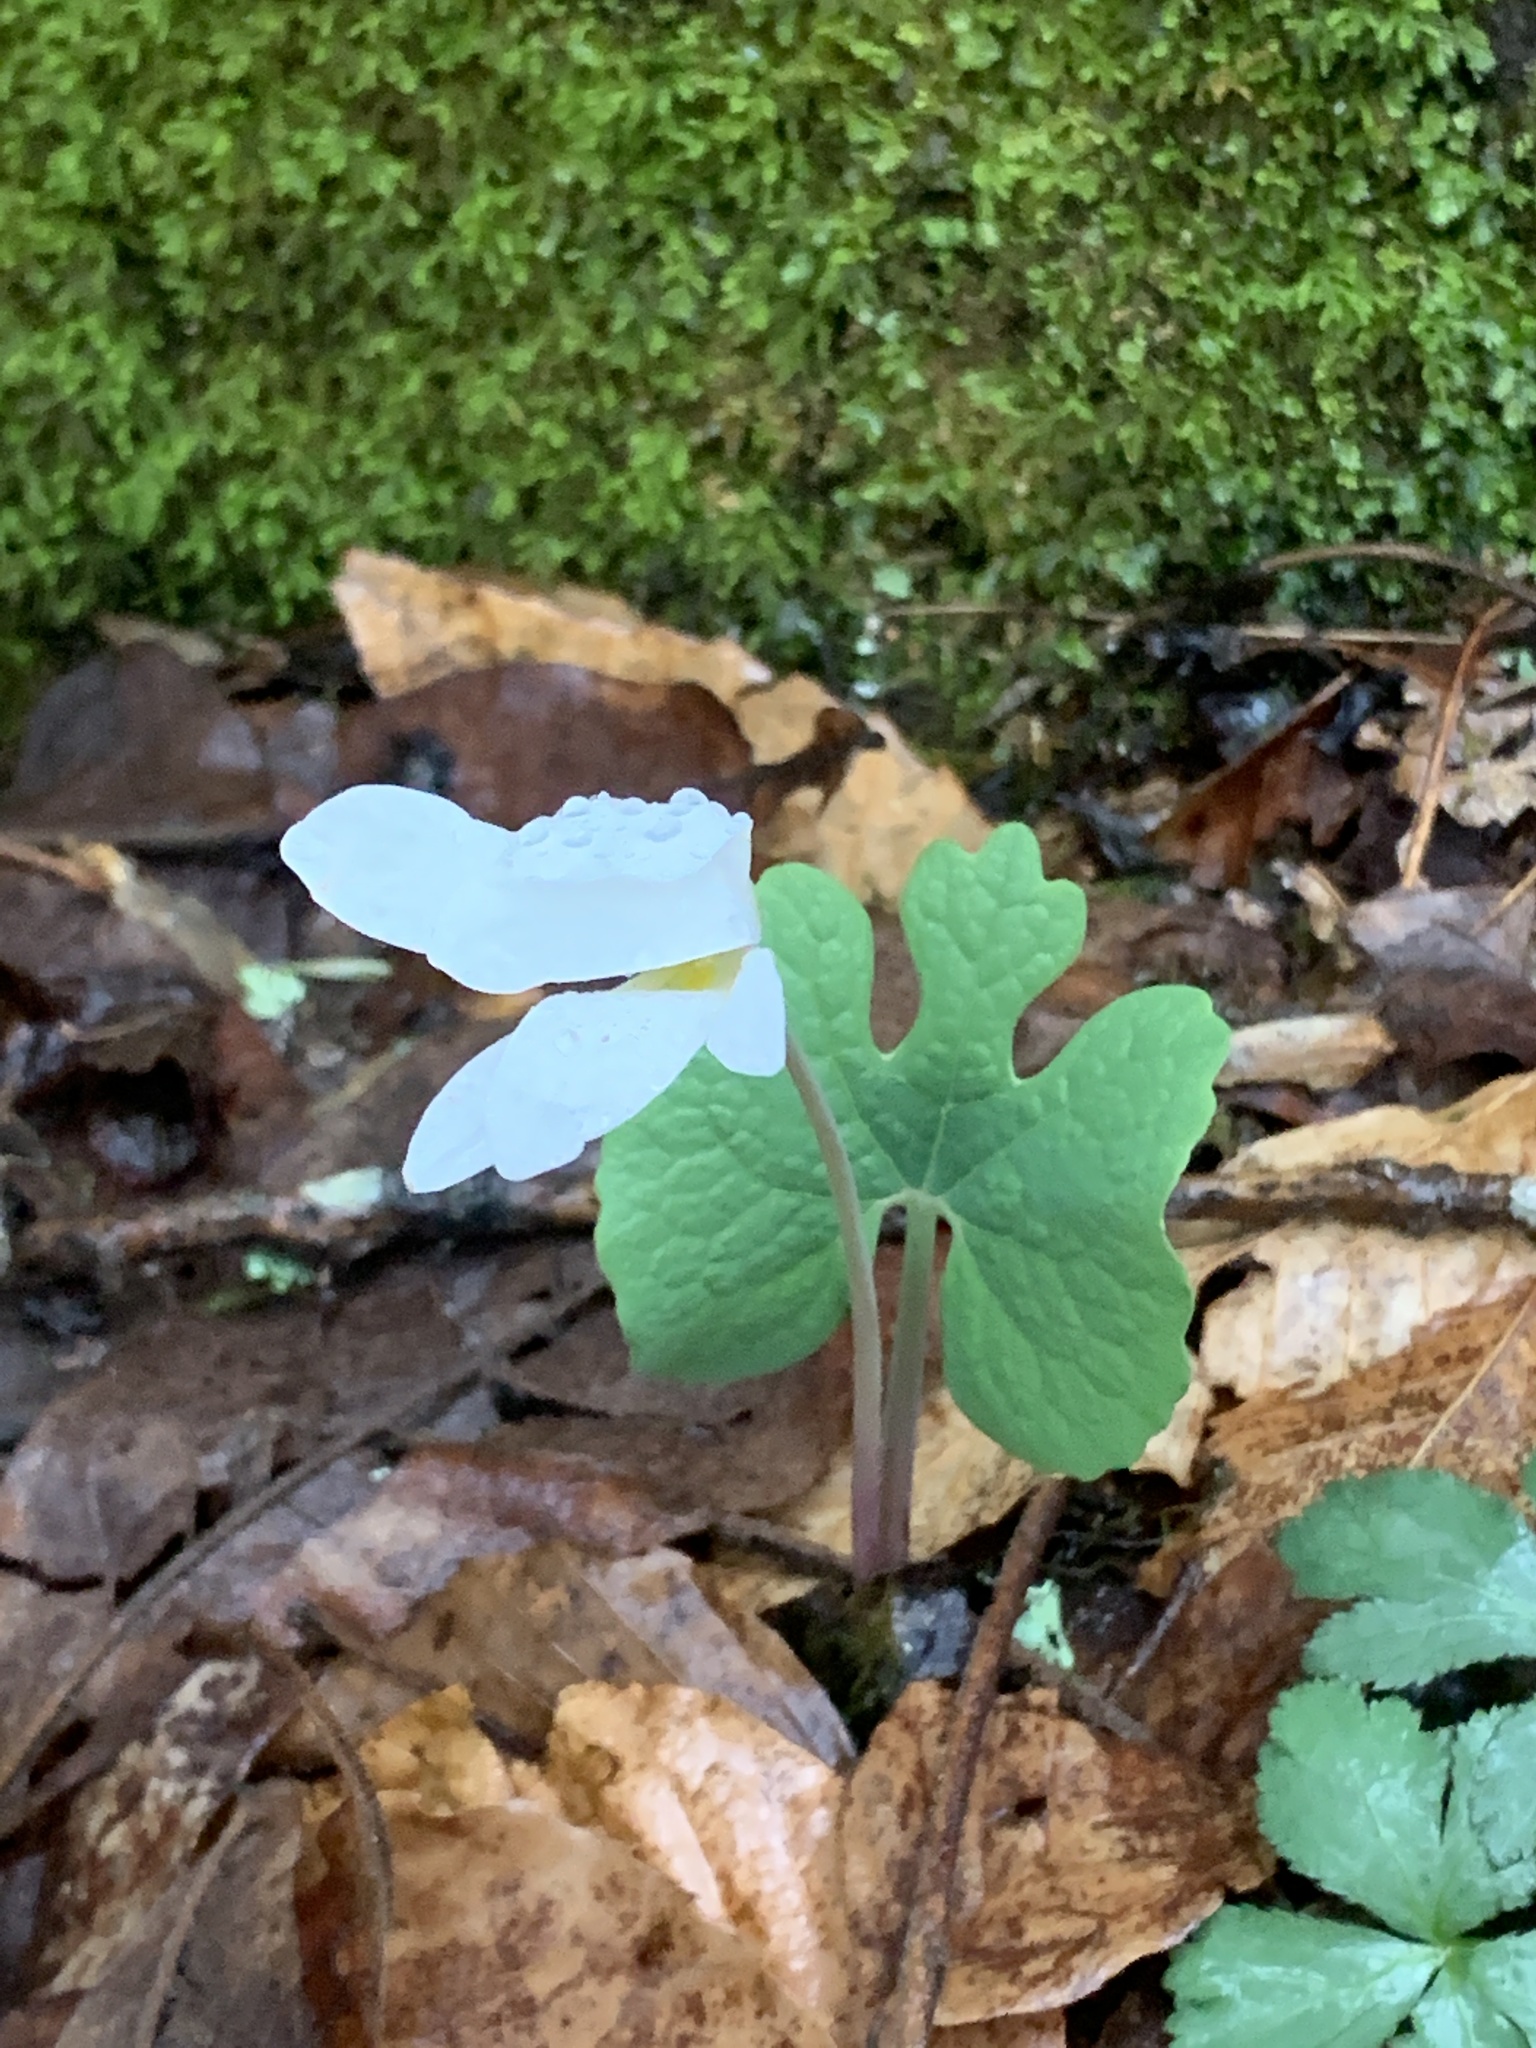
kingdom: Plantae
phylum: Tracheophyta
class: Magnoliopsida
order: Ranunculales
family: Papaveraceae
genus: Sanguinaria
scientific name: Sanguinaria canadensis
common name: Bloodroot
